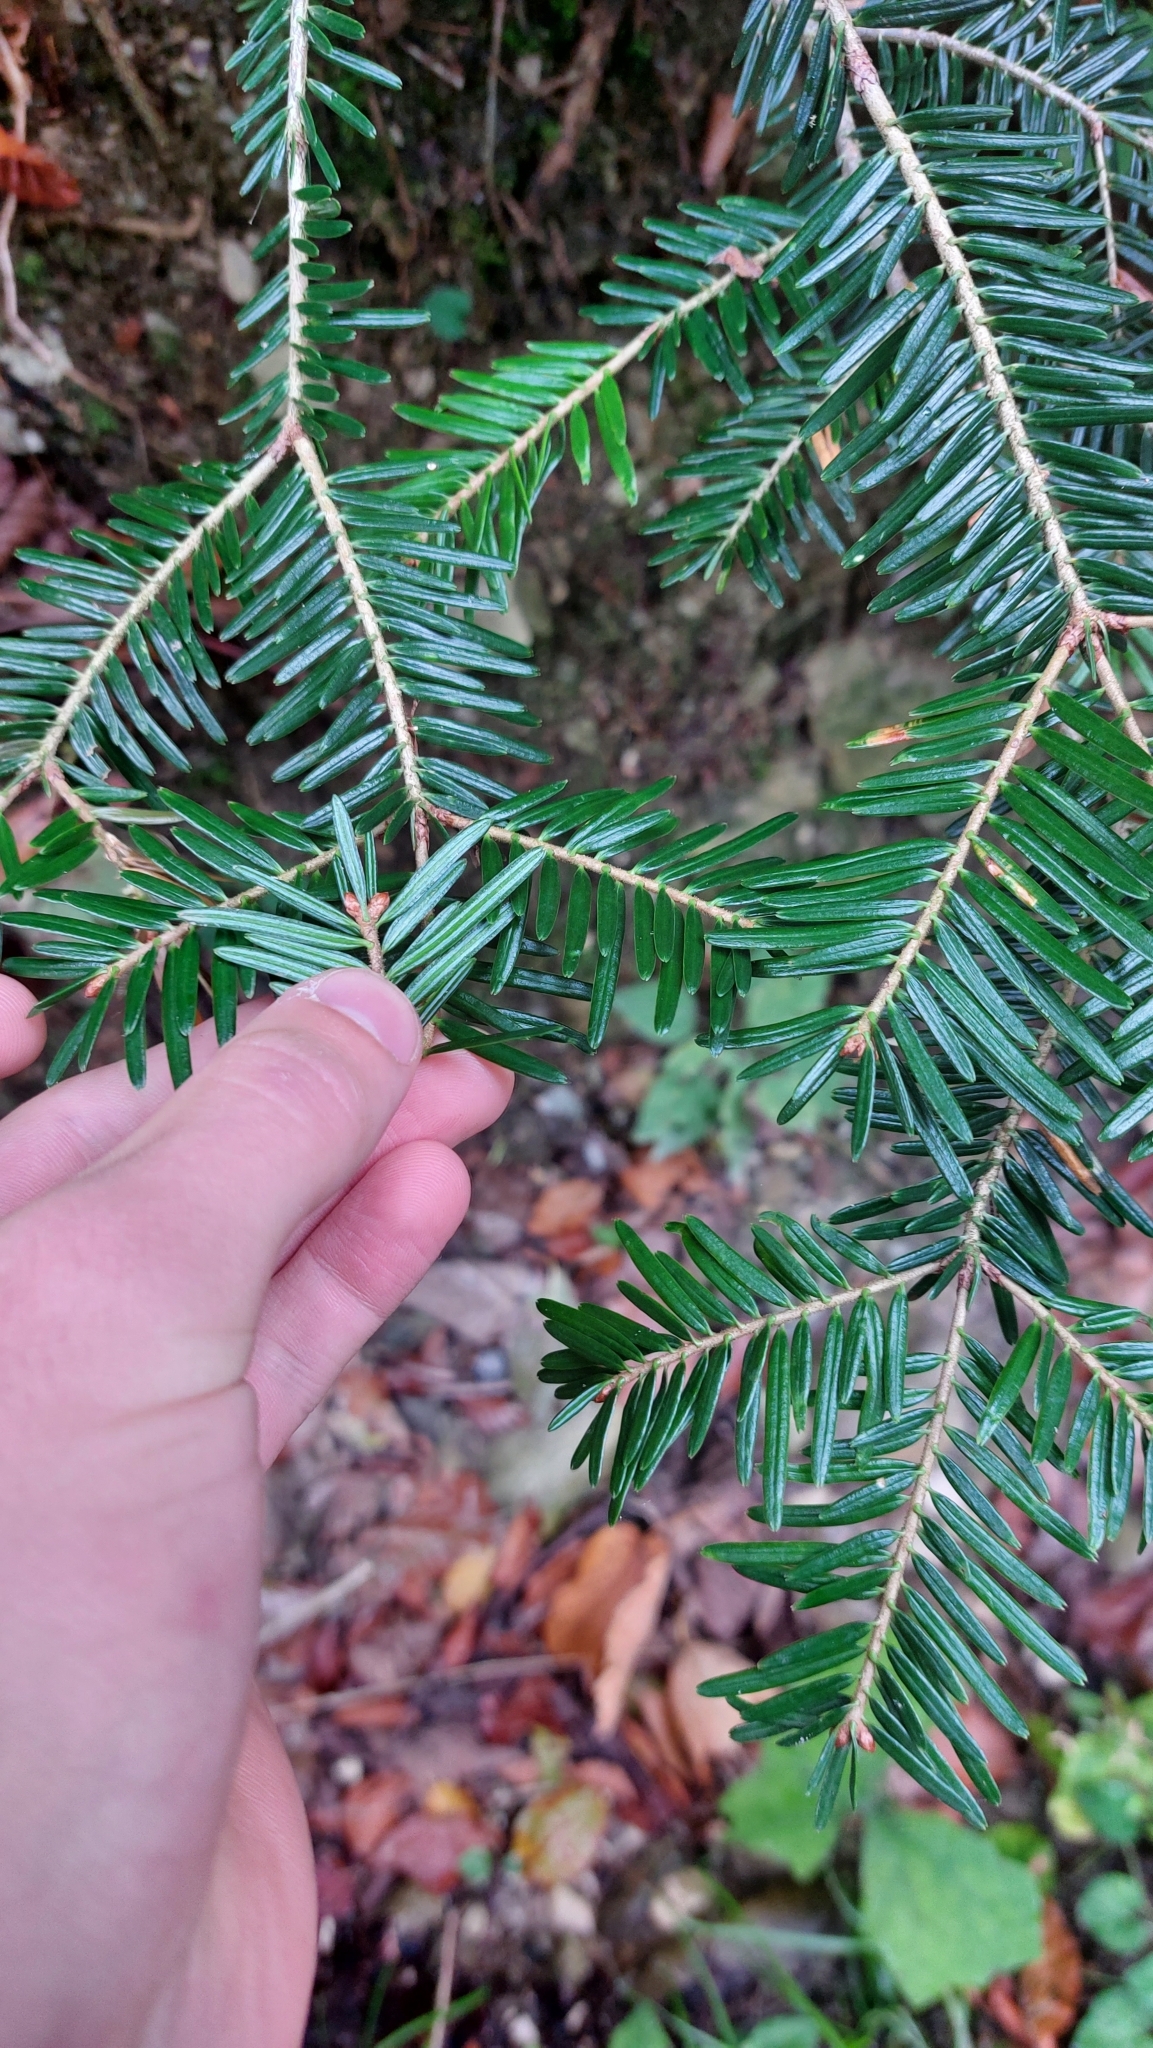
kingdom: Plantae
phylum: Tracheophyta
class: Pinopsida
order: Pinales
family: Pinaceae
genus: Abies
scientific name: Abies alba
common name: Silver fir
